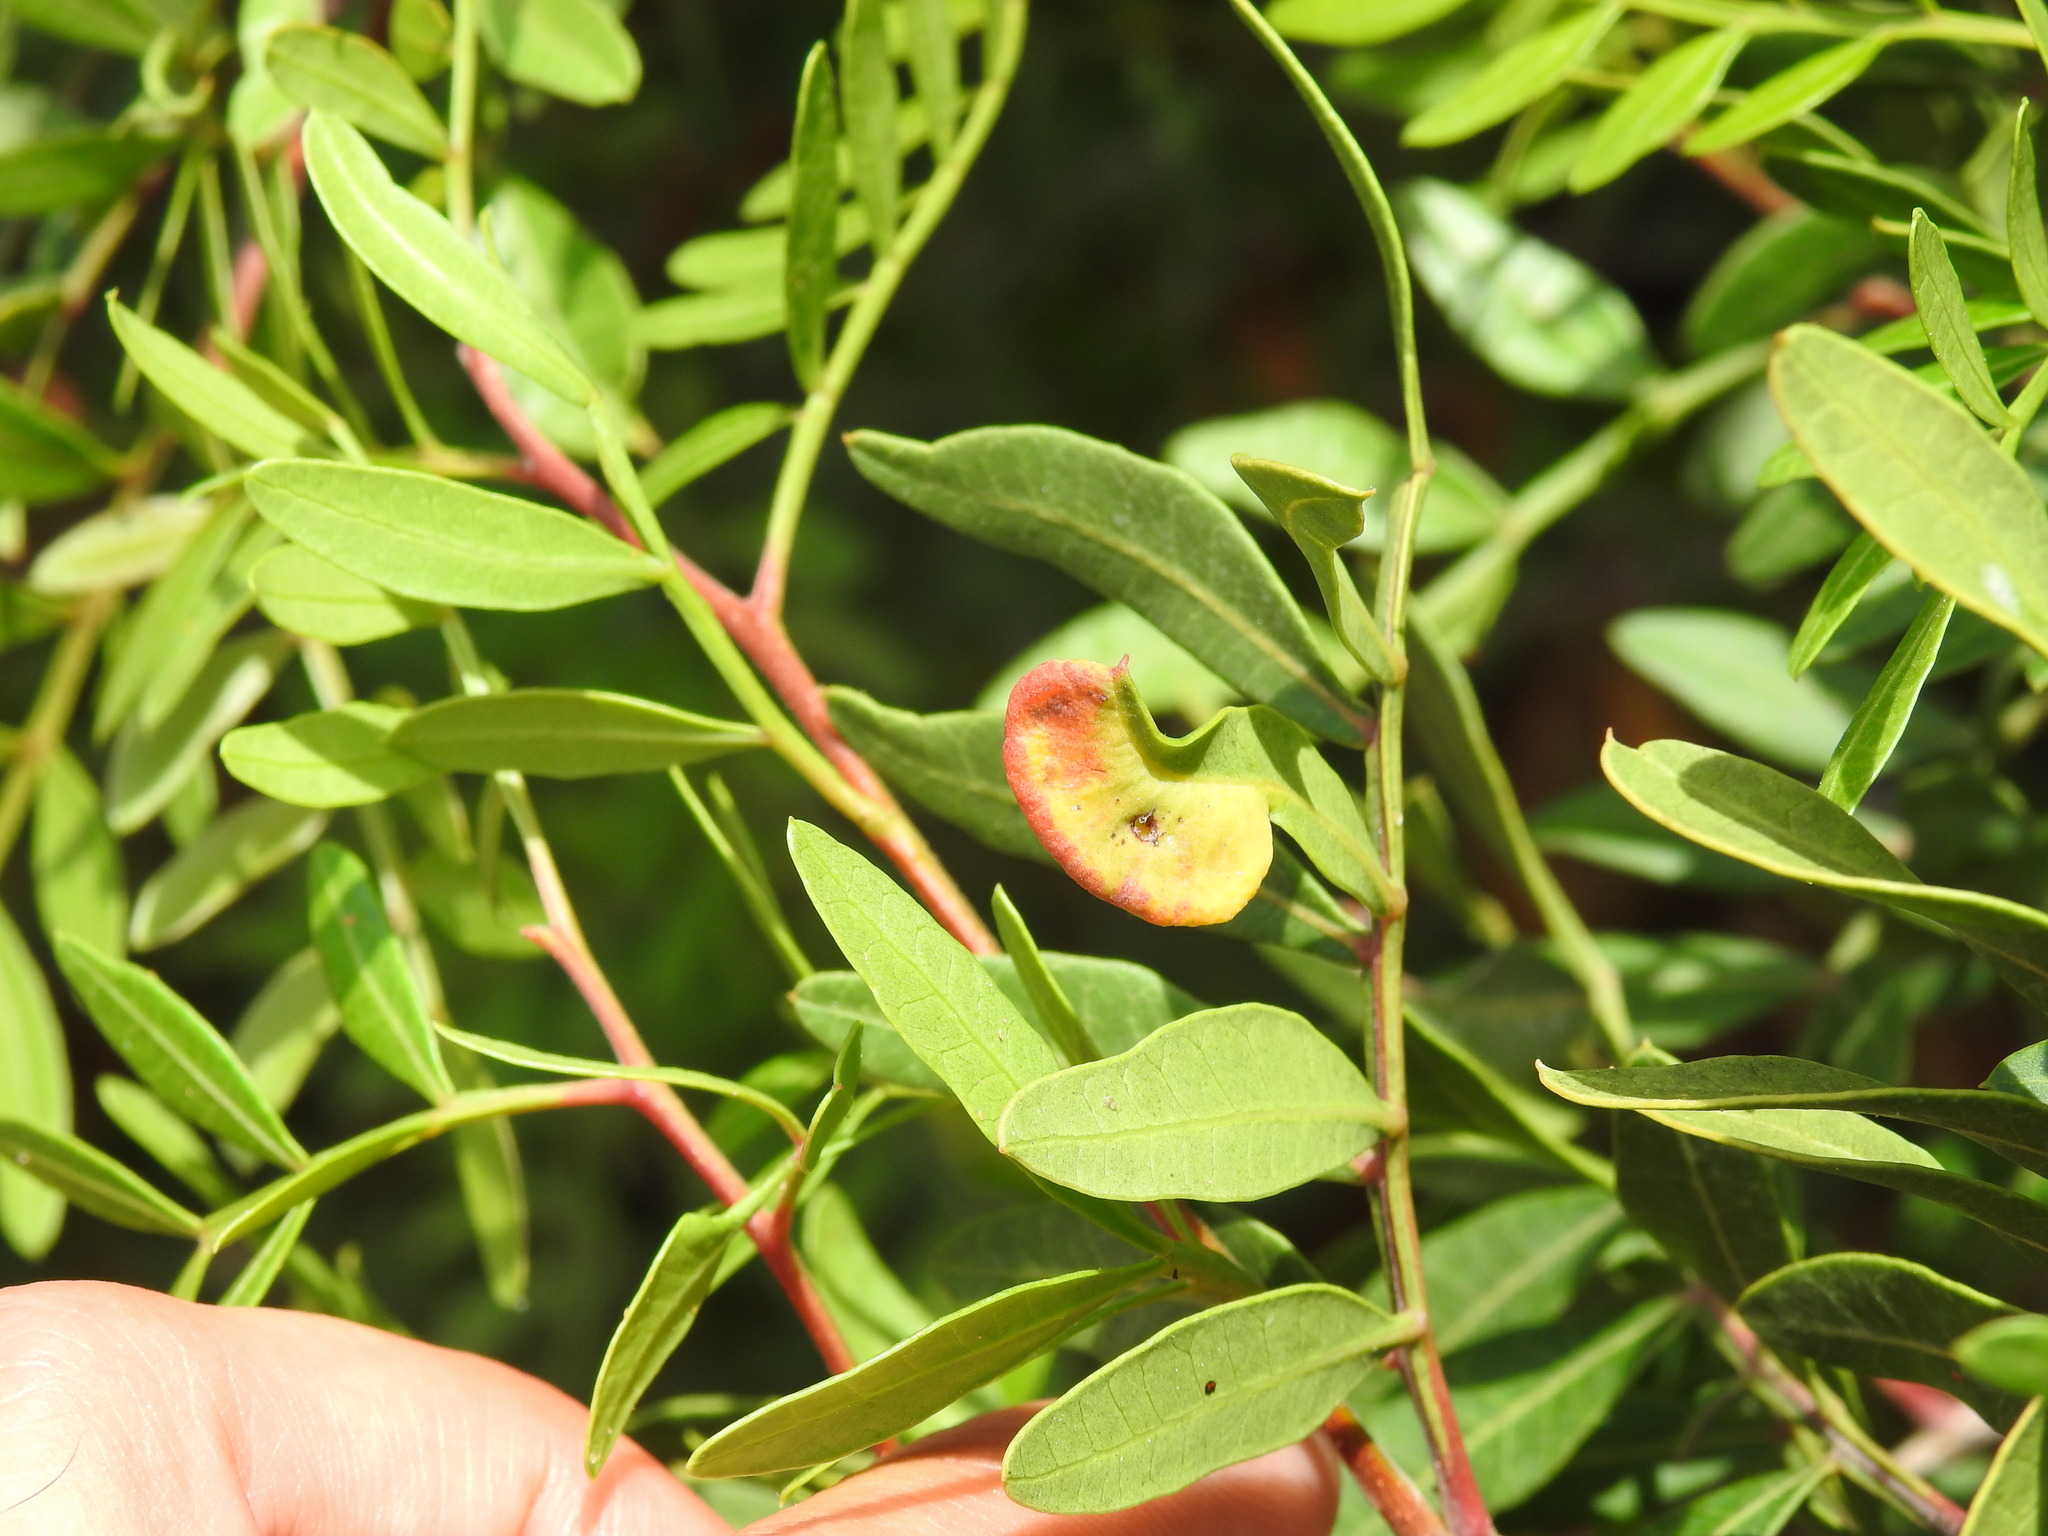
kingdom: Animalia
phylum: Arthropoda
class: Insecta
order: Hemiptera
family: Aphididae
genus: Aploneura
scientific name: Aploneura lentisci
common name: Mealy grass root aphid
